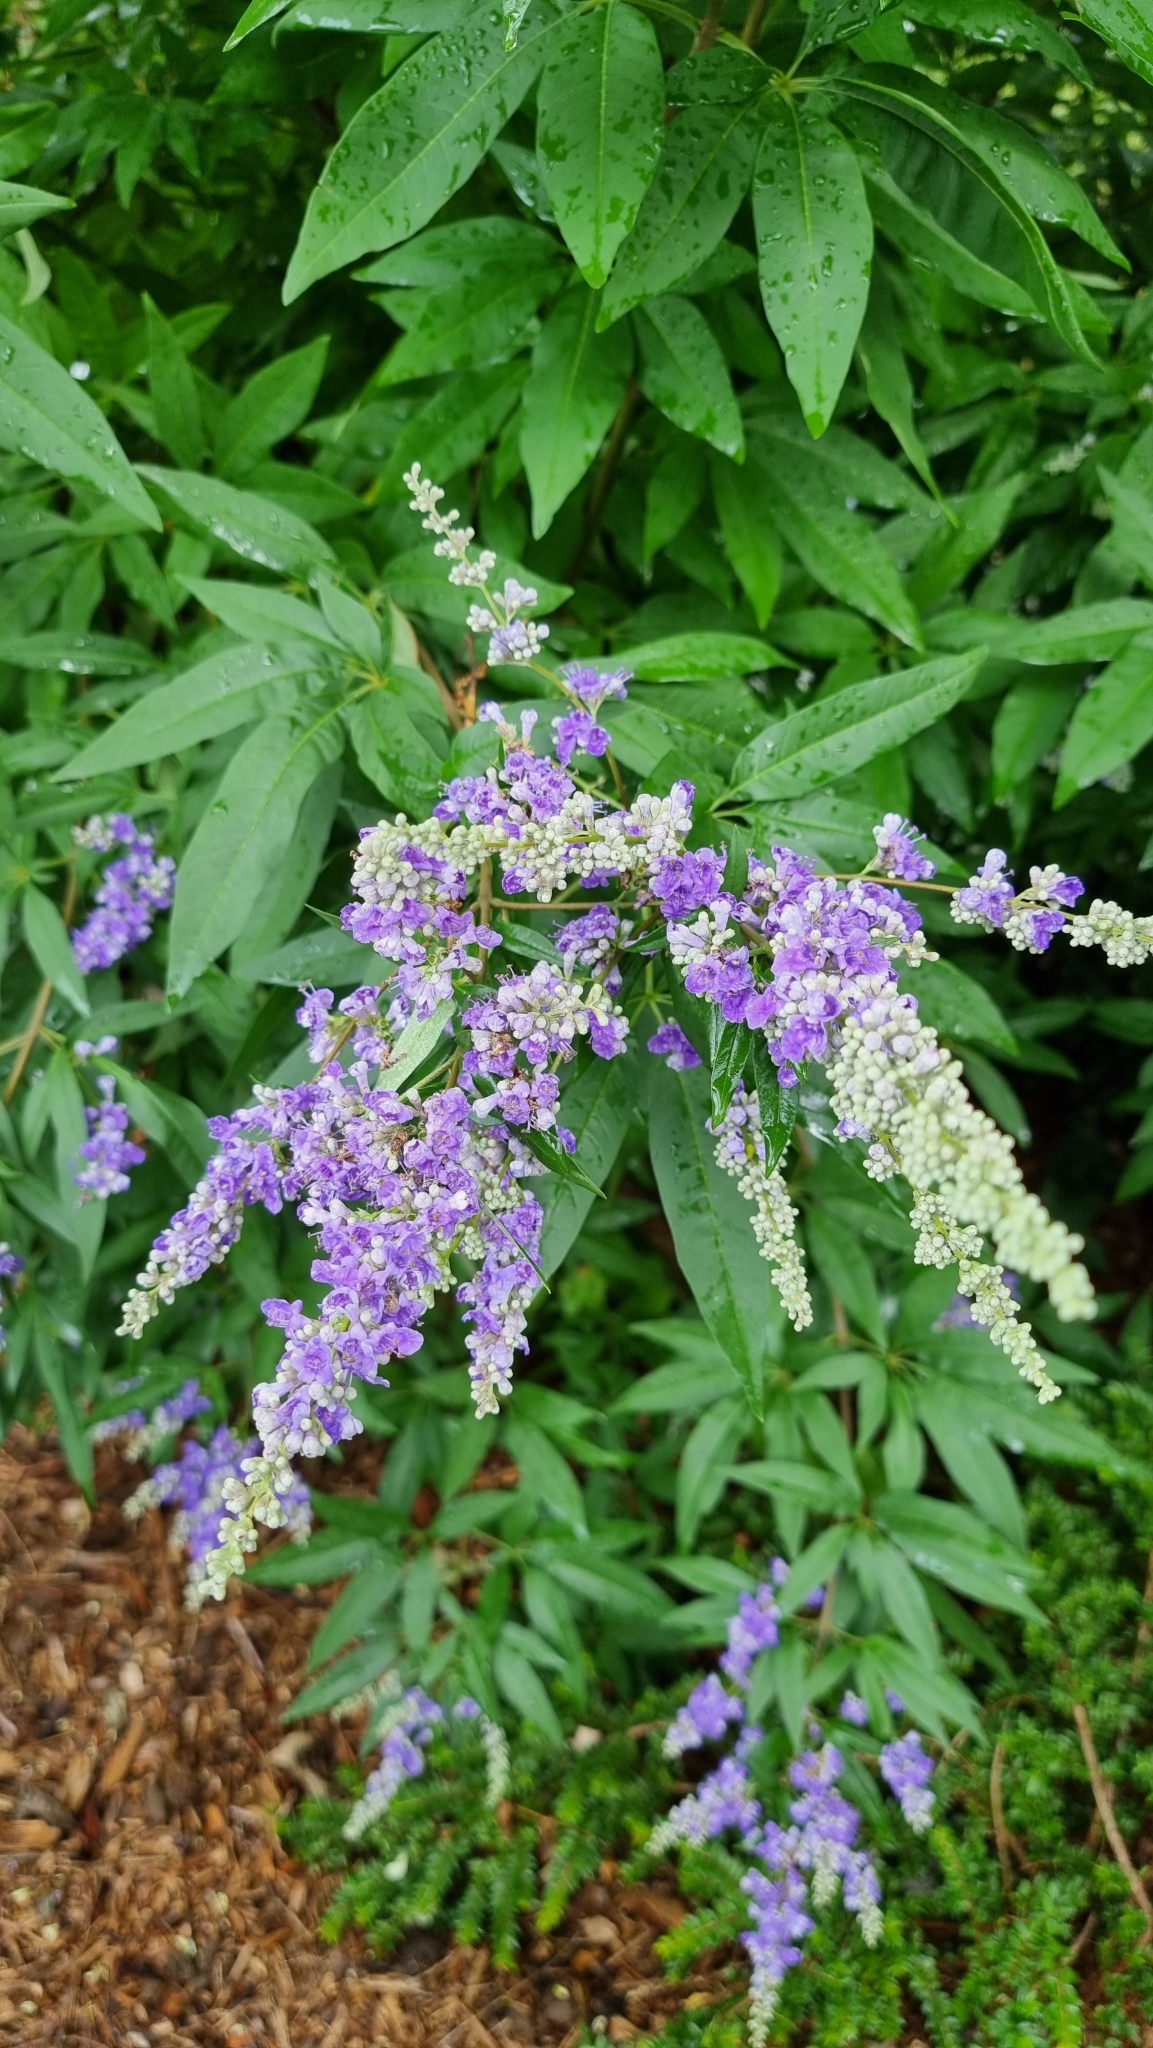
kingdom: Plantae
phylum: Tracheophyta
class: Magnoliopsida
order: Lamiales
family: Lamiaceae
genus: Vitex
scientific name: Vitex agnus-castus
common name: Chasteberry
